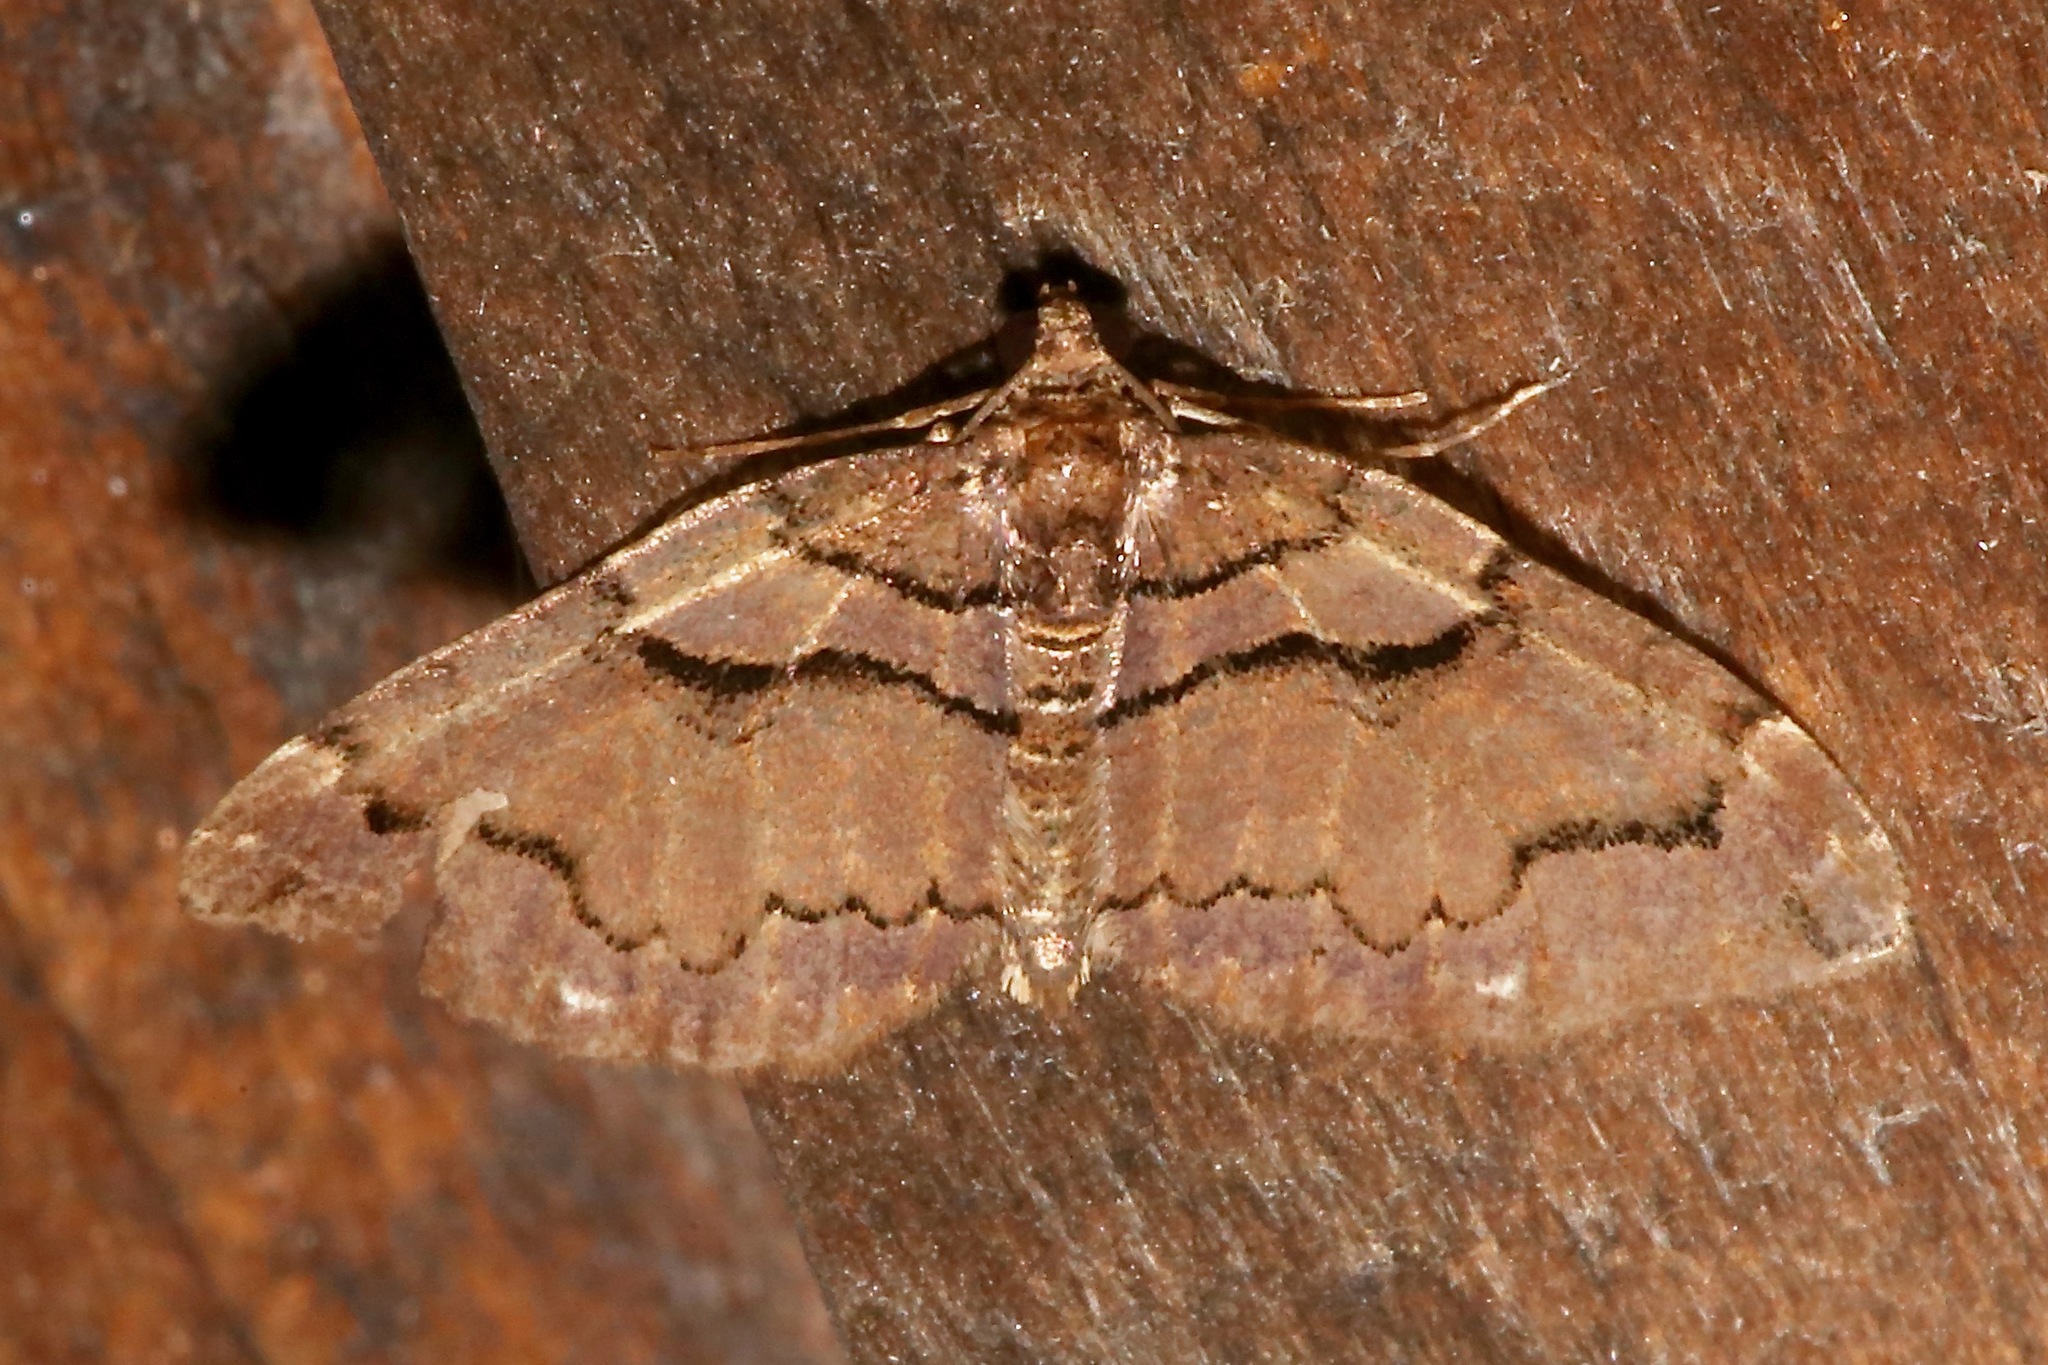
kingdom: Animalia
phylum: Arthropoda
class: Insecta
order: Lepidoptera
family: Geometridae
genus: Anticlea
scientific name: Anticlea vasiliata
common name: Variable carpet
